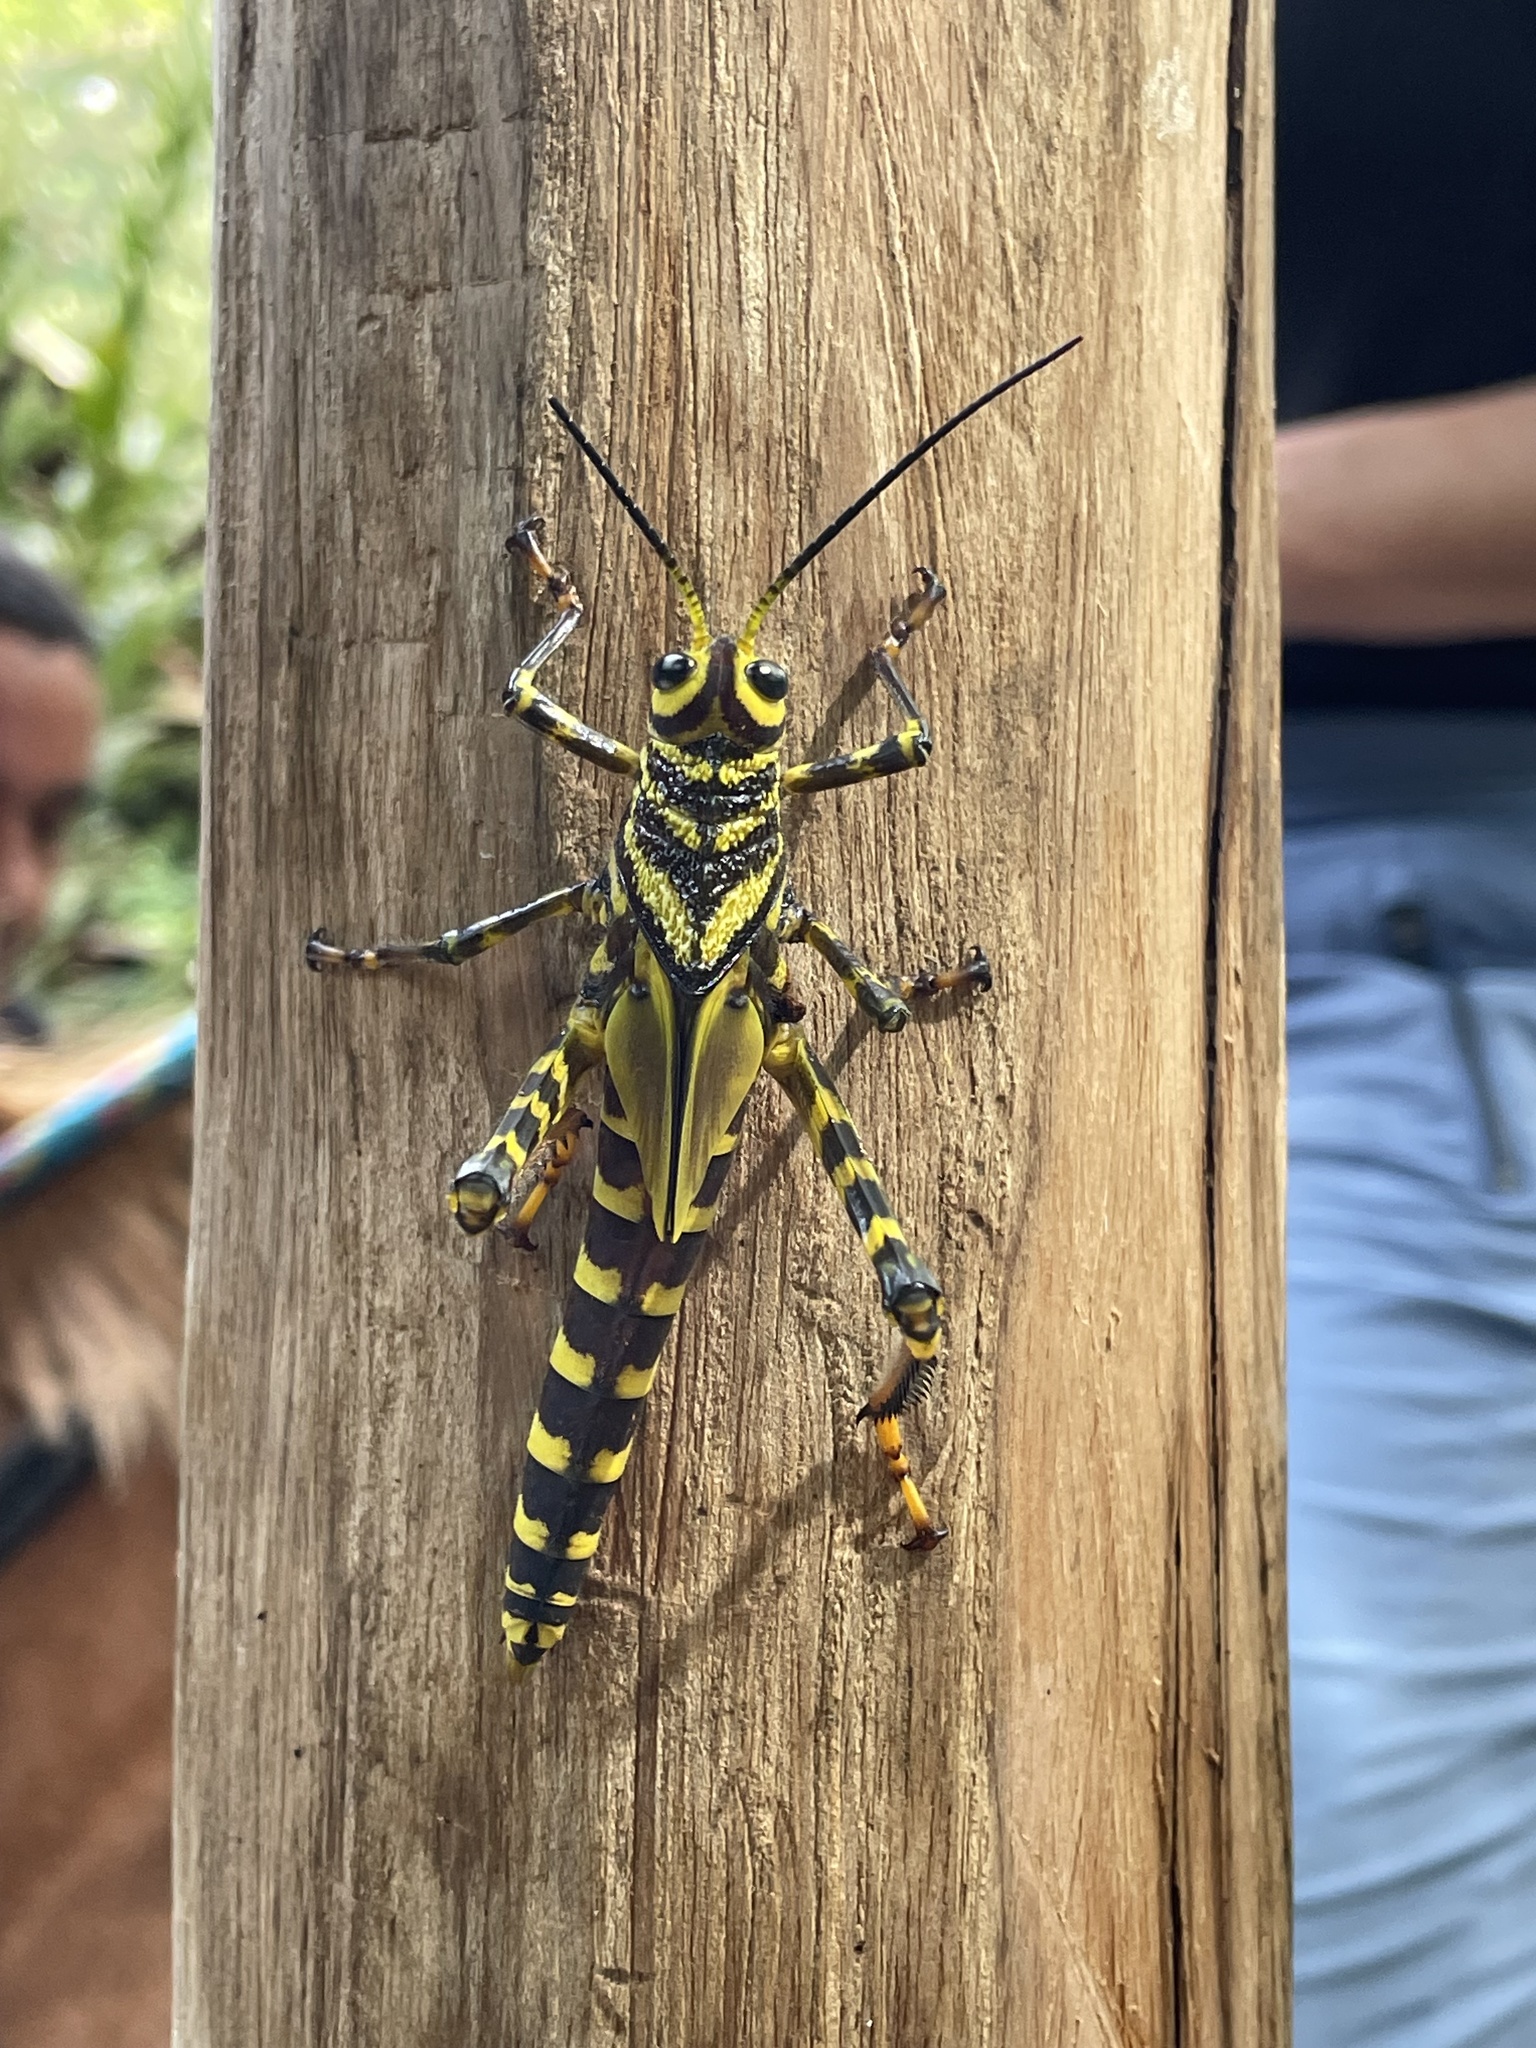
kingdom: Animalia
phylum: Arthropoda
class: Insecta
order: Orthoptera
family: Romaleidae
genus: Tropidacris
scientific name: Tropidacris cristata
